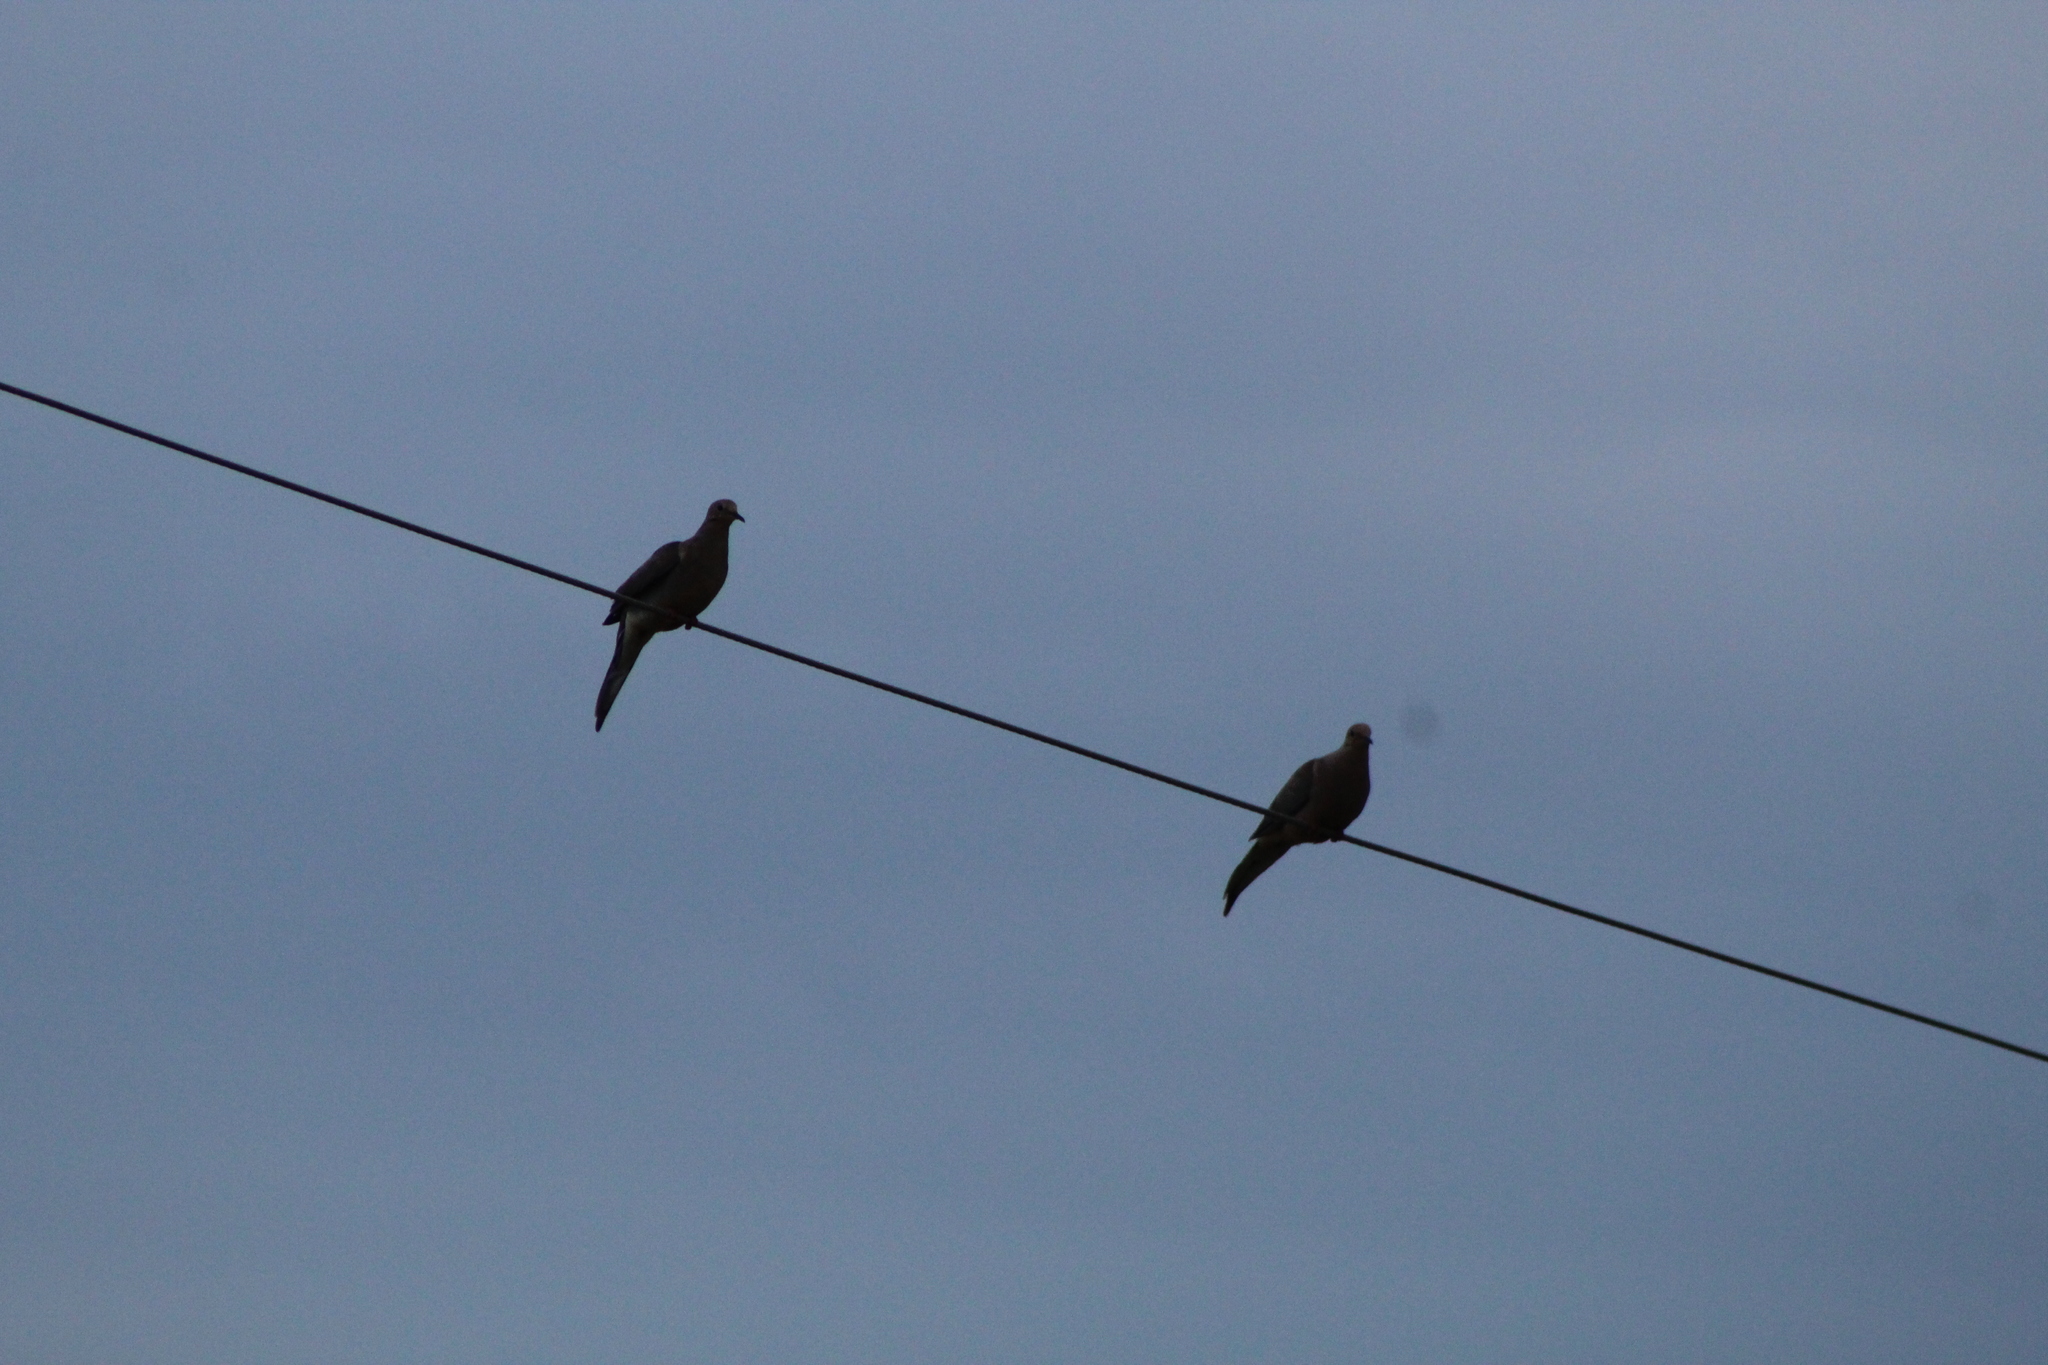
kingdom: Animalia
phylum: Chordata
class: Aves
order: Columbiformes
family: Columbidae
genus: Zenaida
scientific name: Zenaida macroura
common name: Mourning dove
